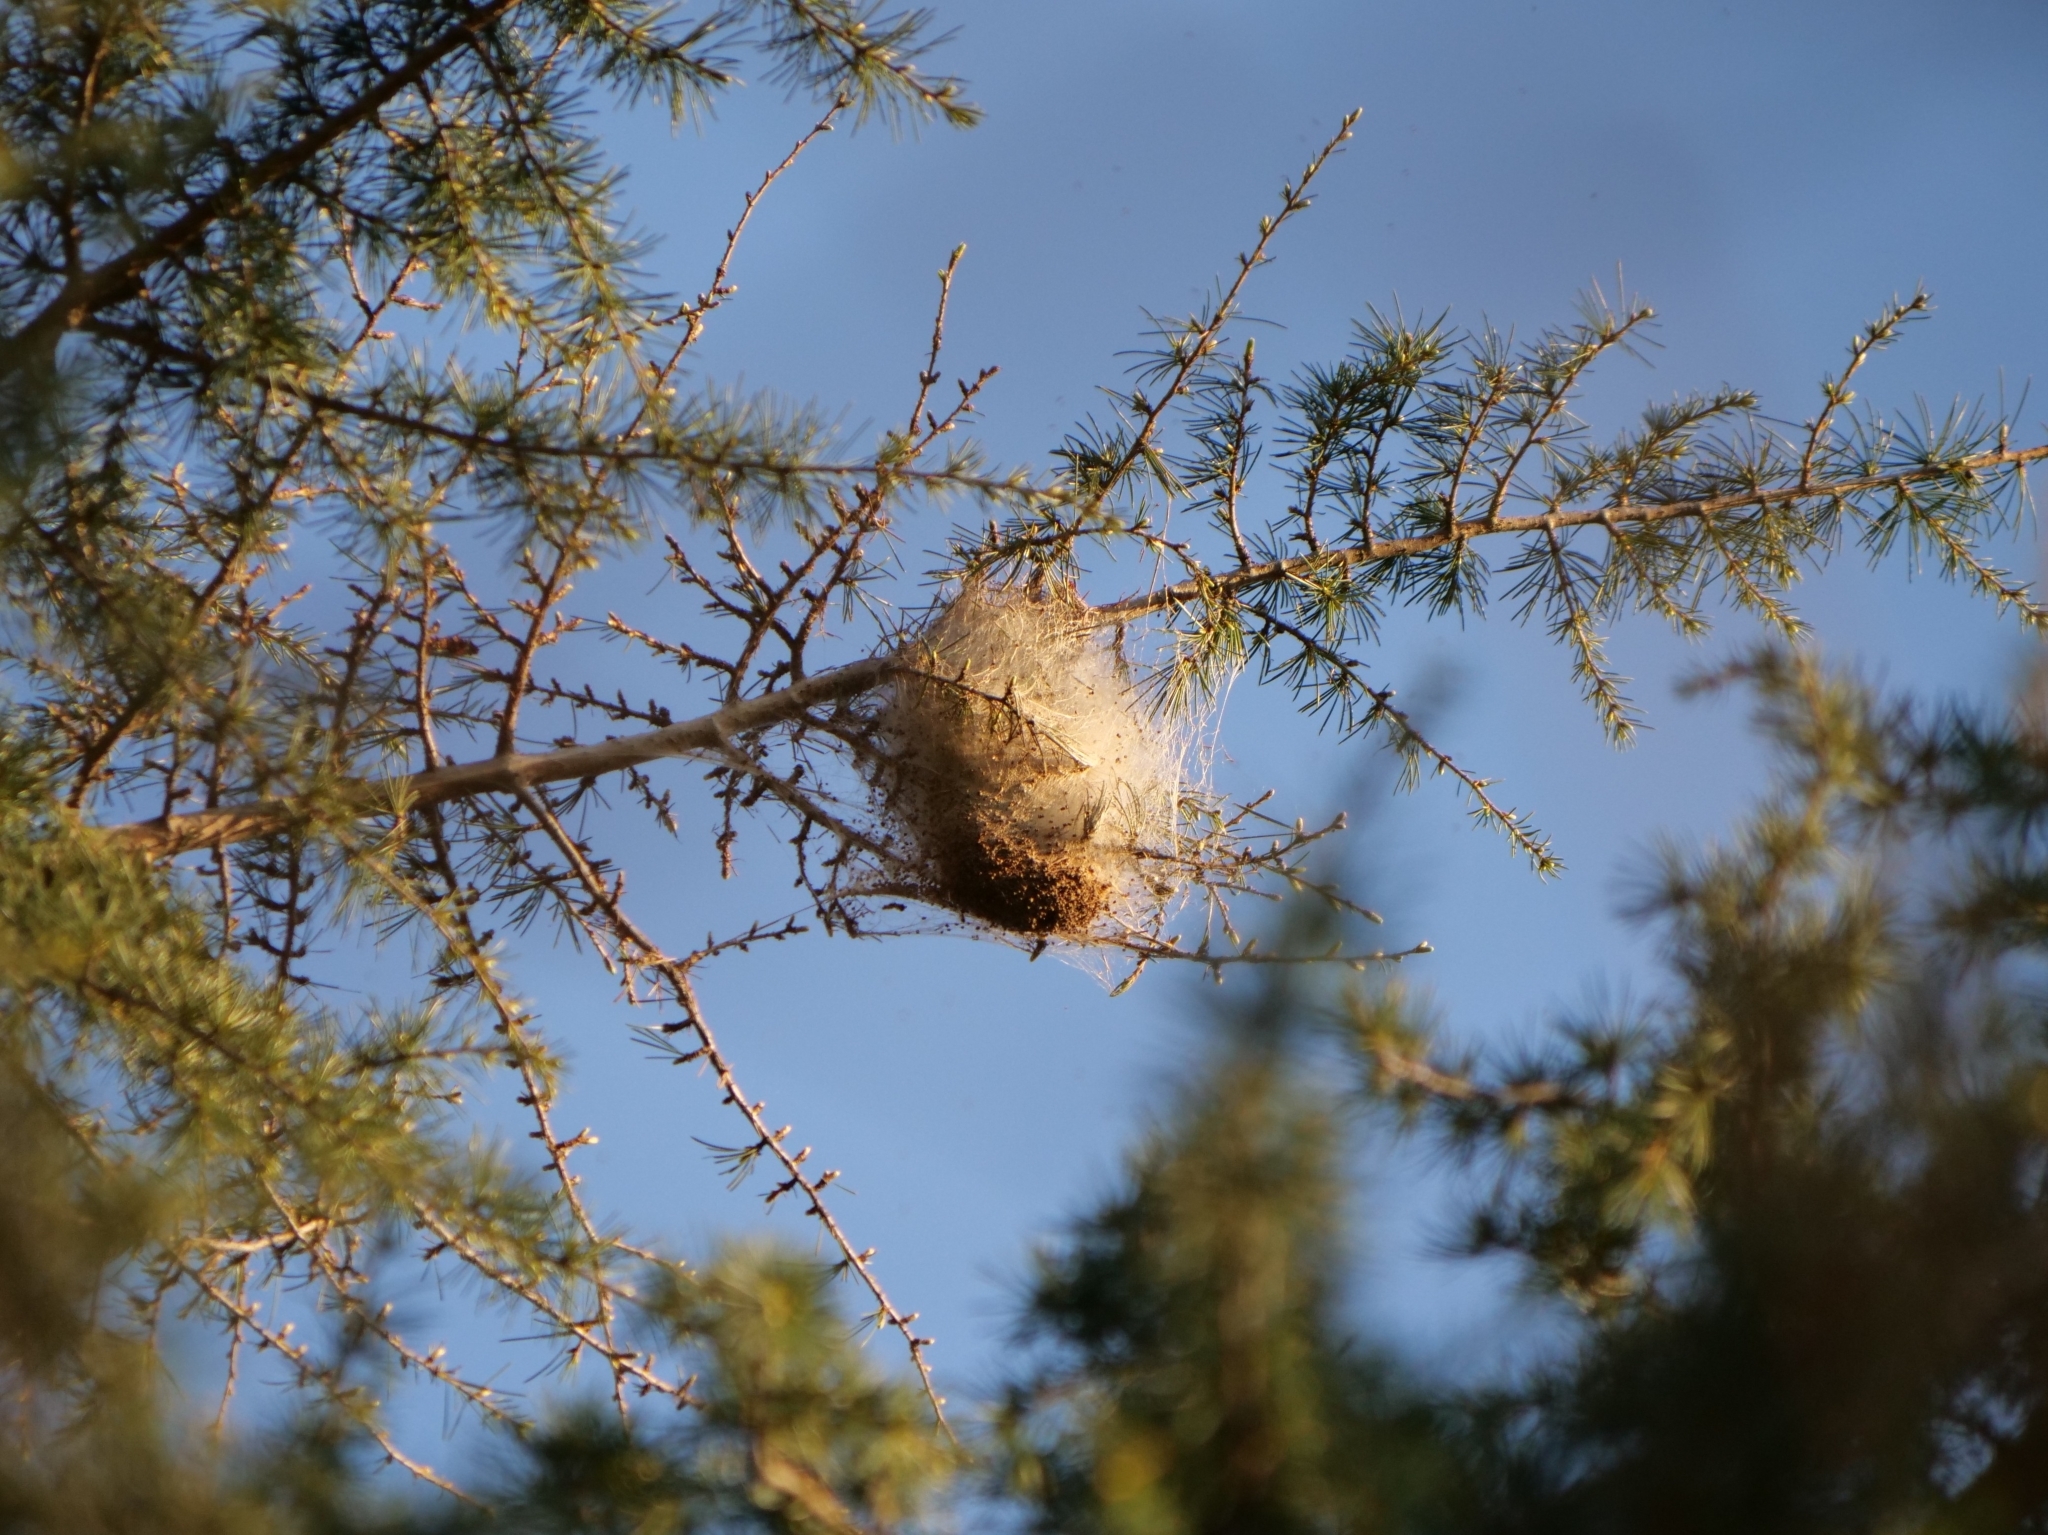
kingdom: Animalia
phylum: Arthropoda
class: Insecta
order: Lepidoptera
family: Notodontidae
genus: Thaumetopoea
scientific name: Thaumetopoea pityocampa
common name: Pine processionary
